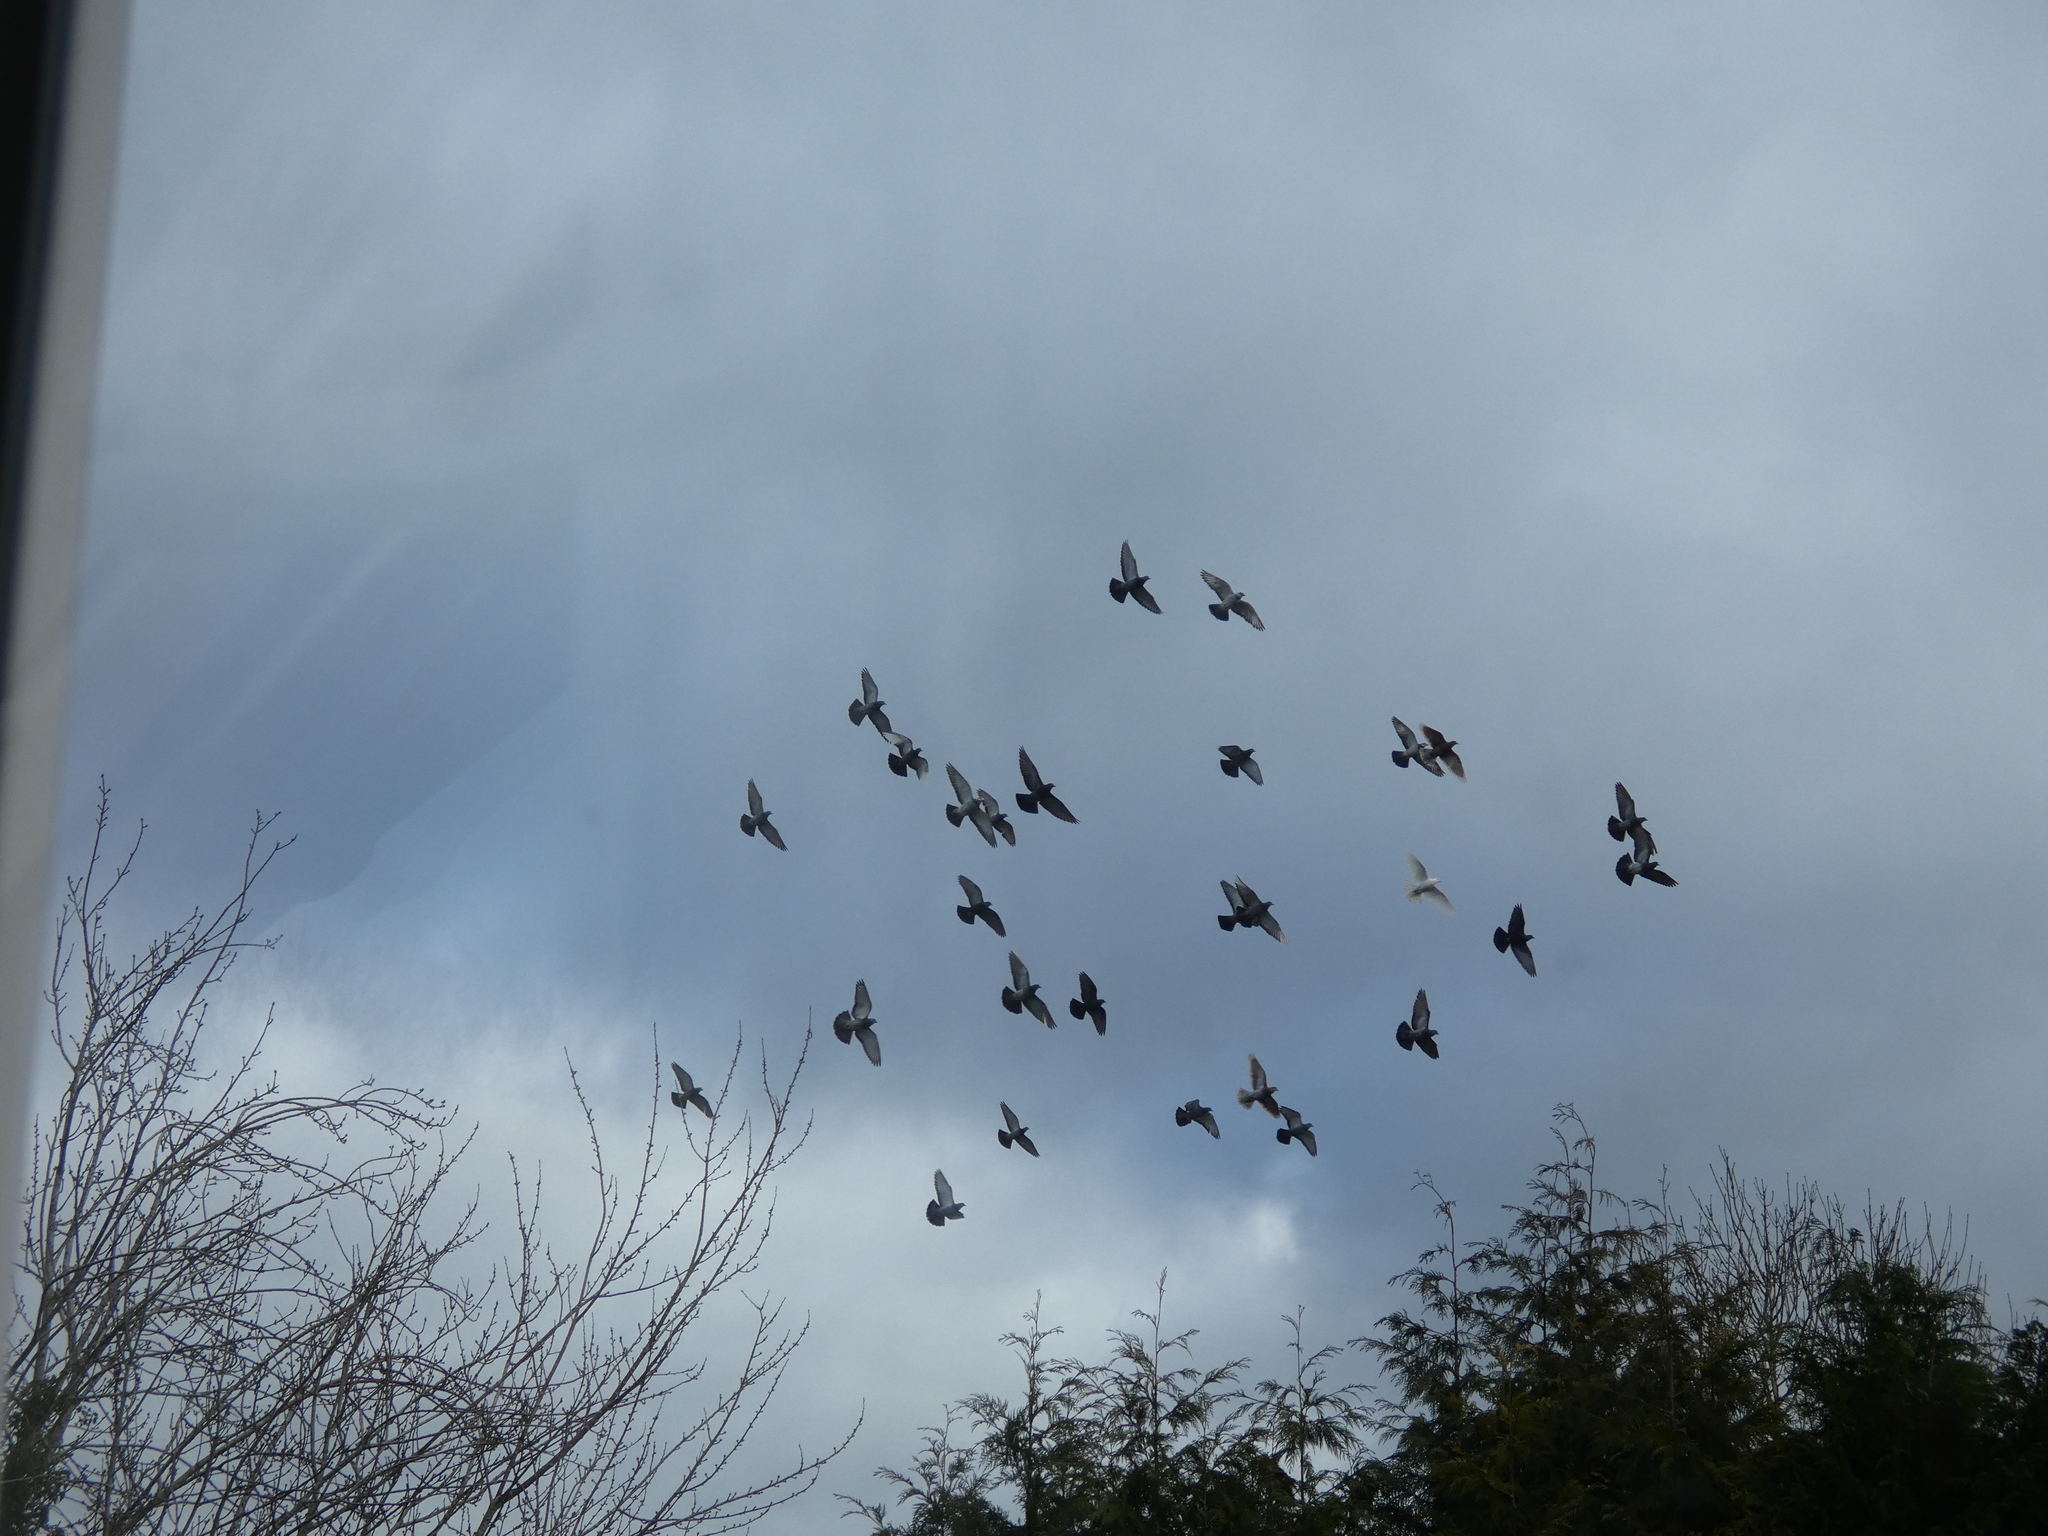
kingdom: Animalia
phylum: Chordata
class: Aves
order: Columbiformes
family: Columbidae
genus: Columba
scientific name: Columba livia
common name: Rock pigeon
